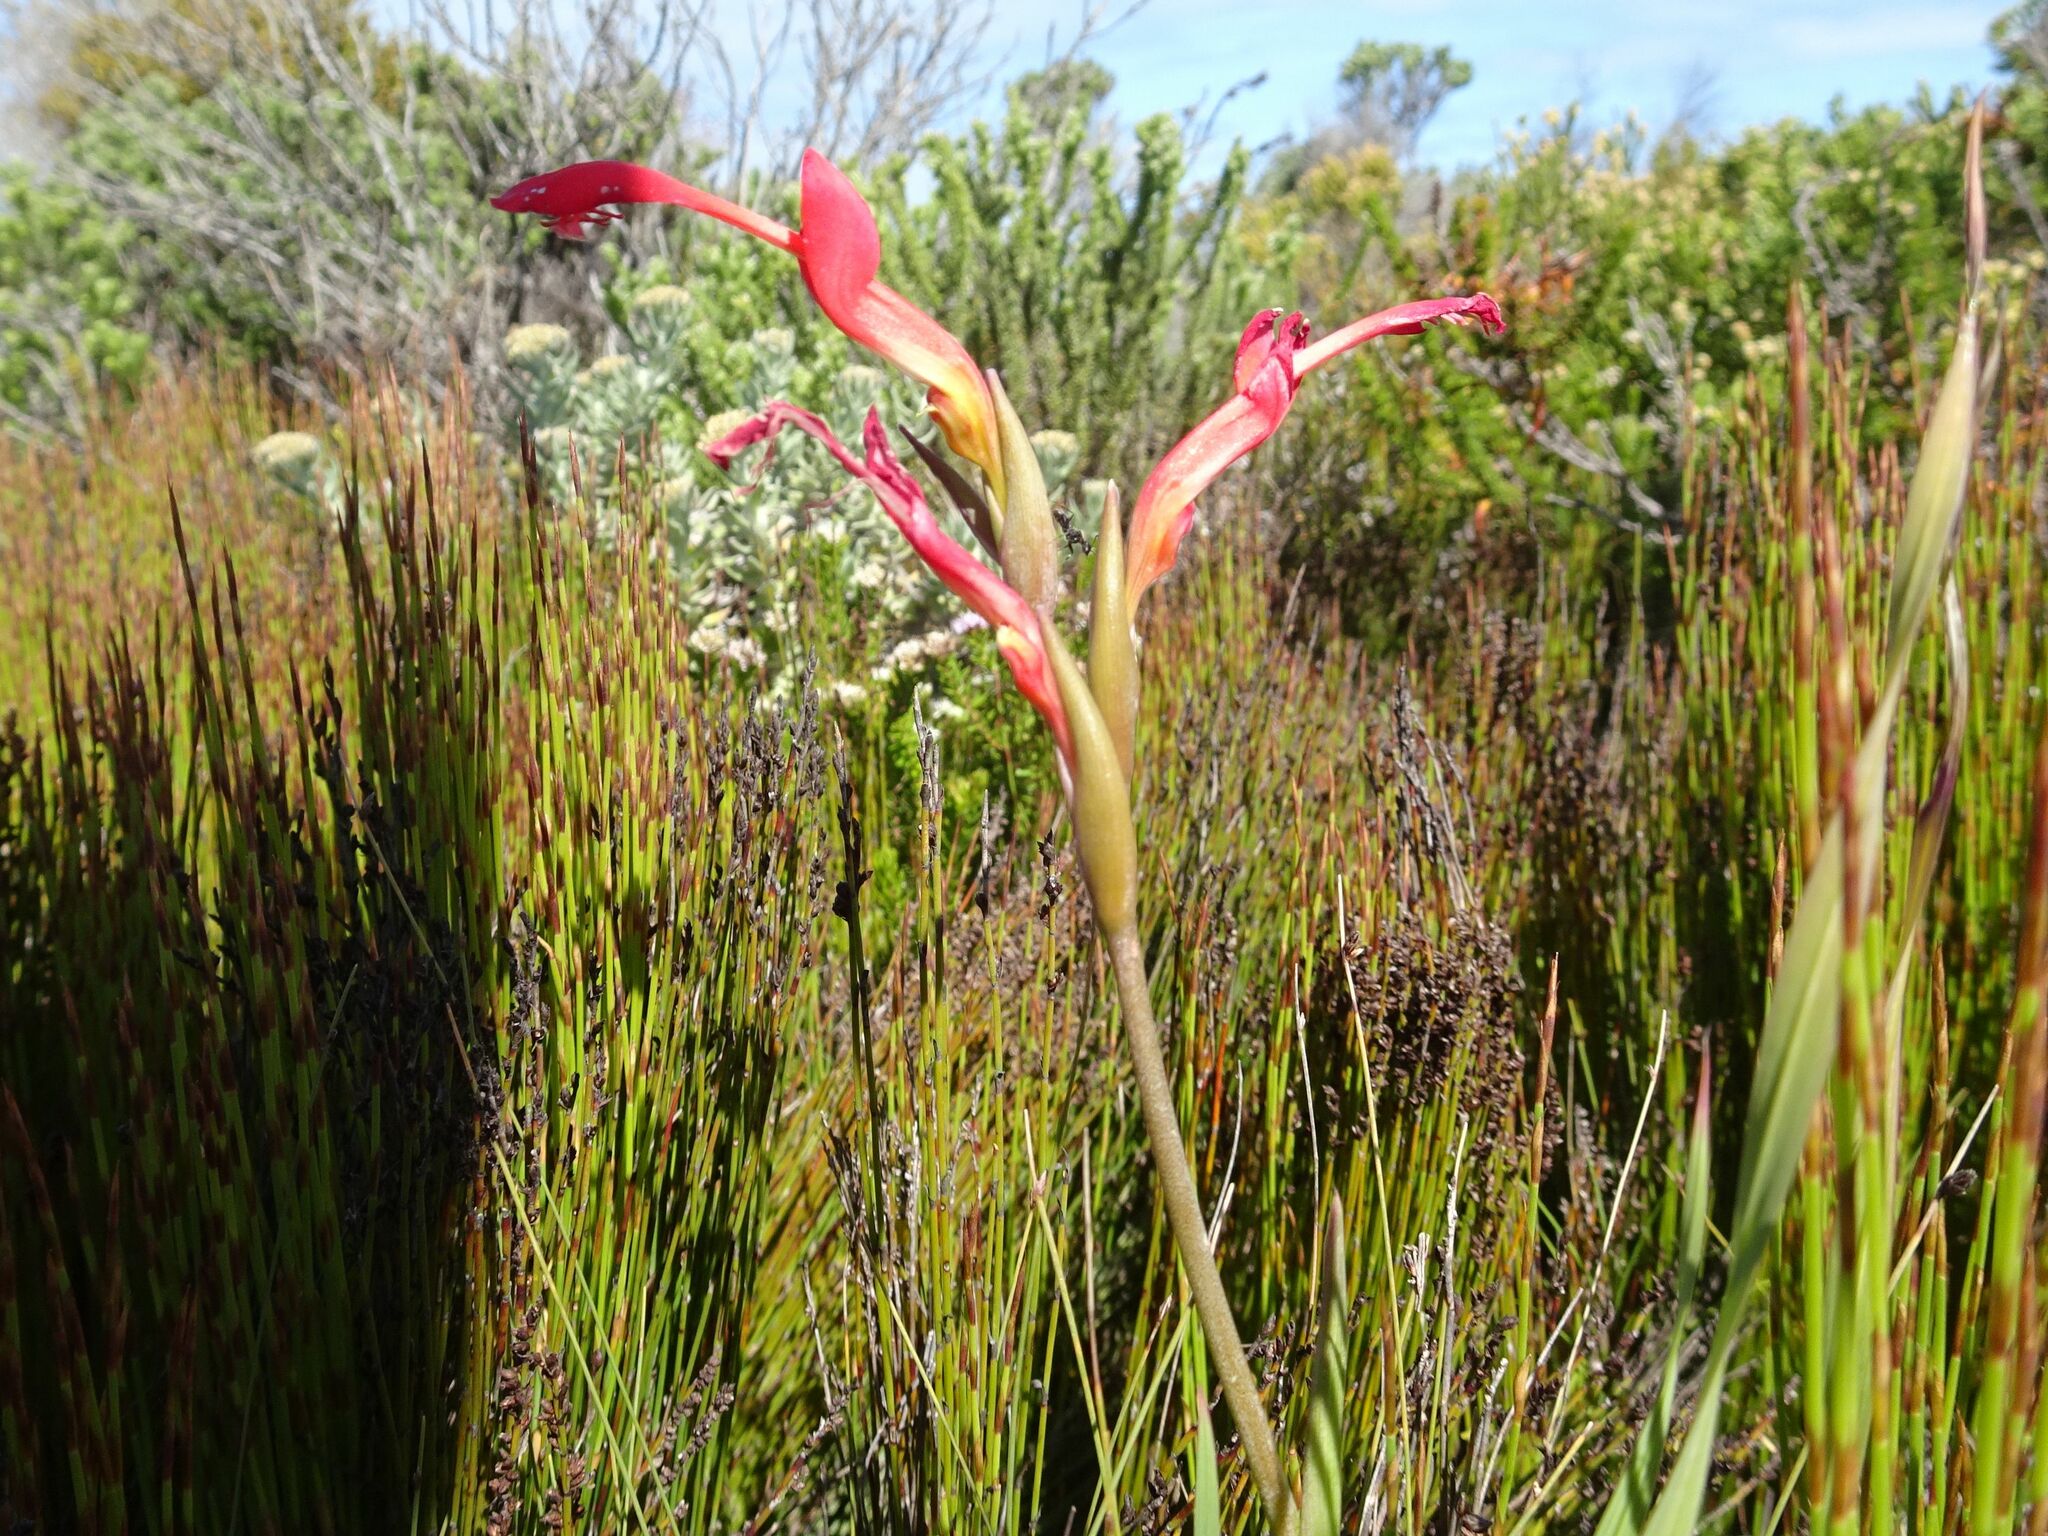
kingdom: Plantae
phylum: Tracheophyta
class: Liliopsida
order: Asparagales
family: Iridaceae
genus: Gladiolus
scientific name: Gladiolus cunonius
